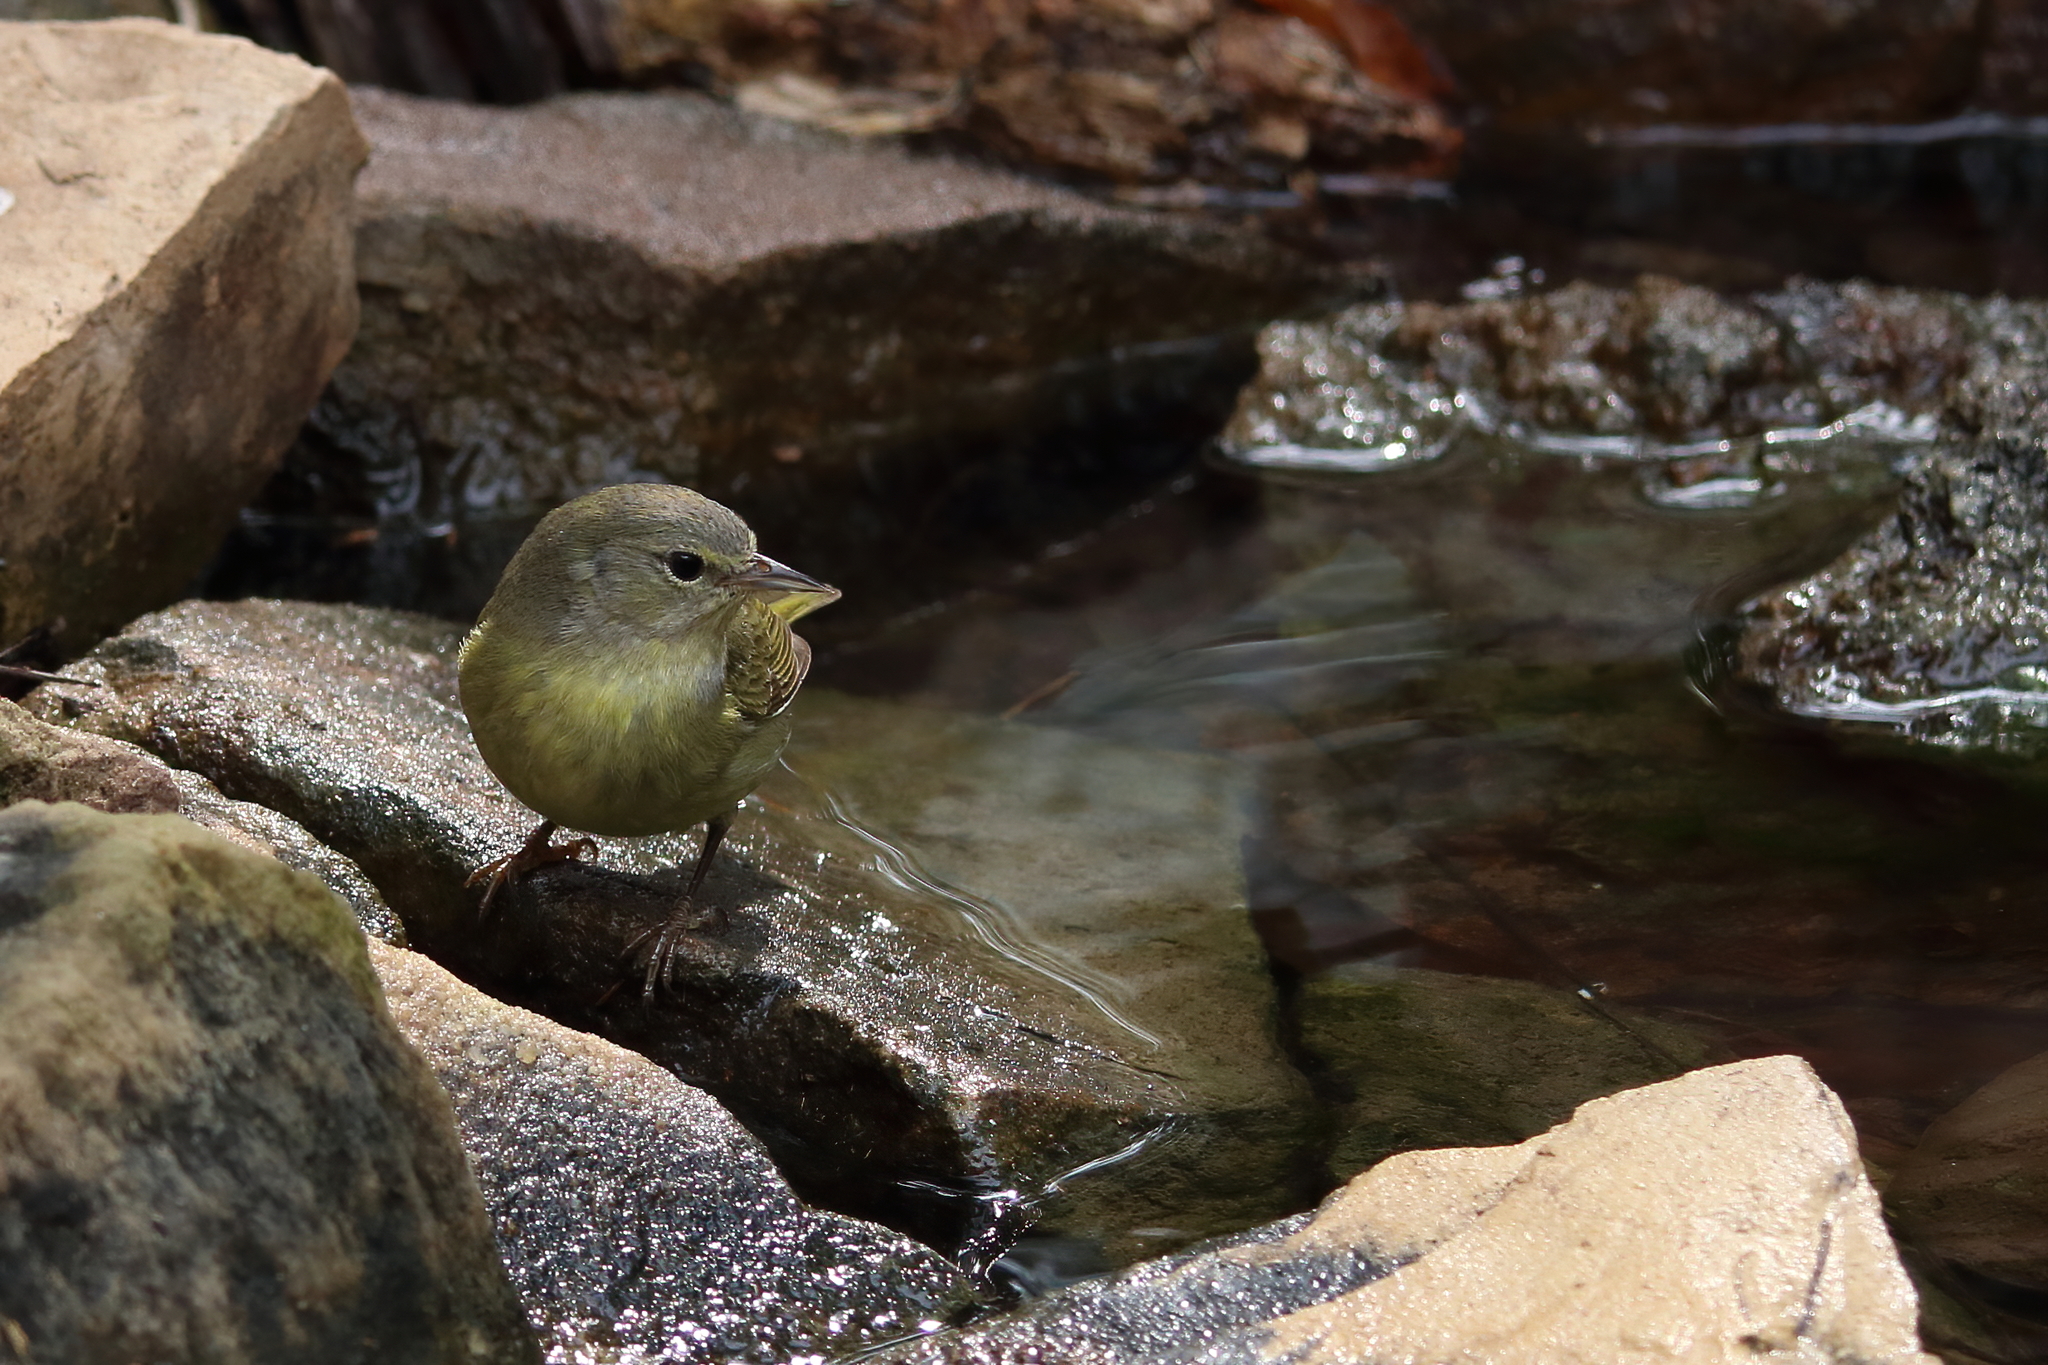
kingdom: Animalia
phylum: Chordata
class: Aves
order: Passeriformes
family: Parulidae
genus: Leiothlypis
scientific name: Leiothlypis celata
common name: Orange-crowned warbler
